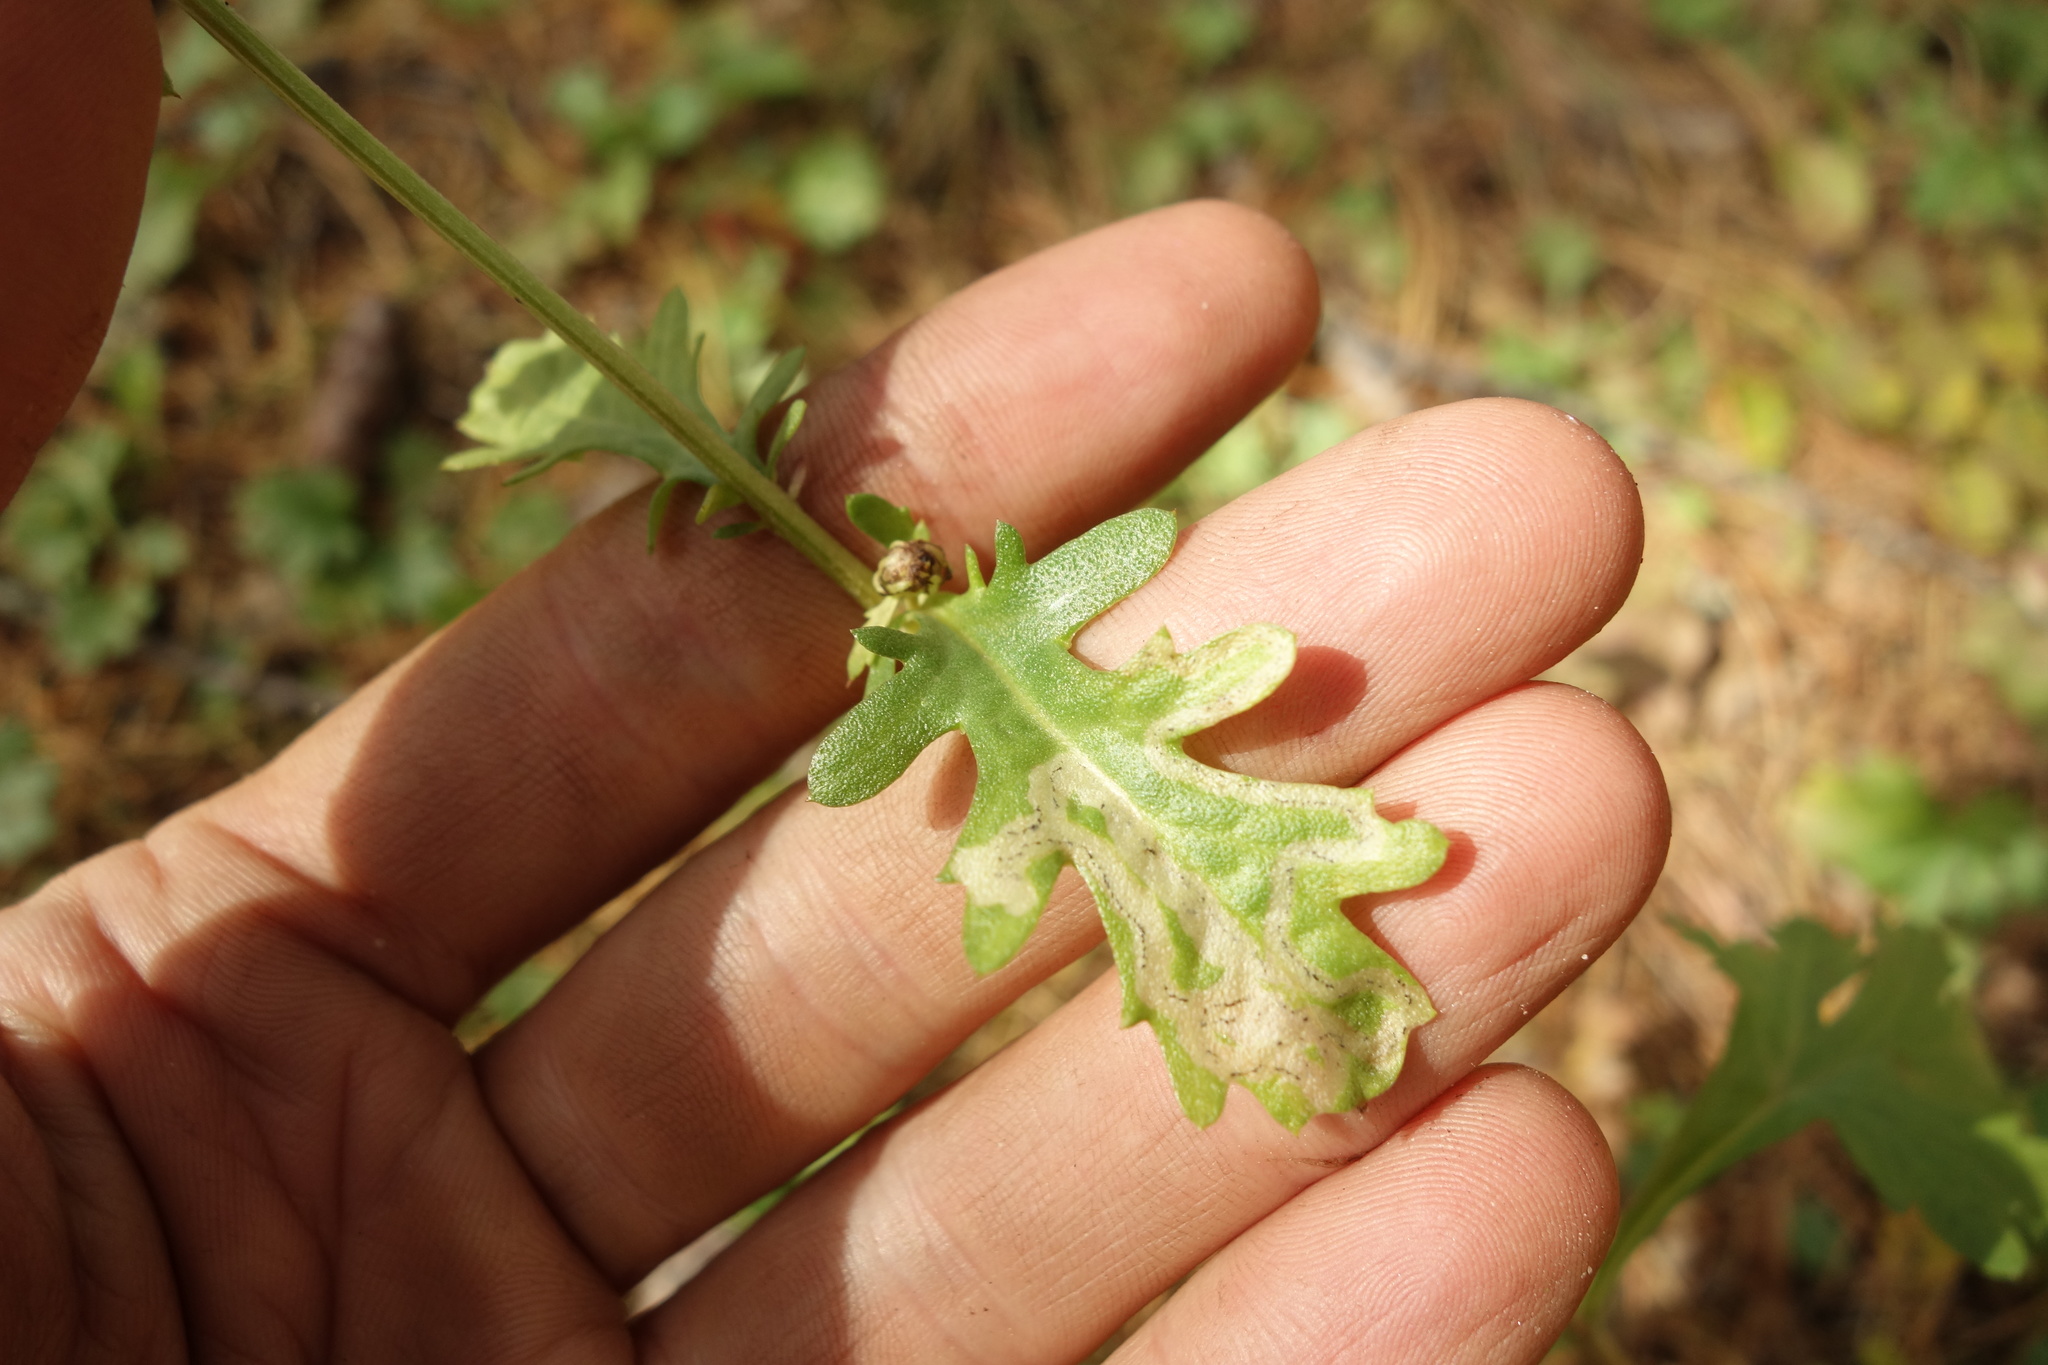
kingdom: Plantae
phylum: Tracheophyta
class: Magnoliopsida
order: Asterales
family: Asteraceae
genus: Chrysanthemum
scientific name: Chrysanthemum zawadzkii
